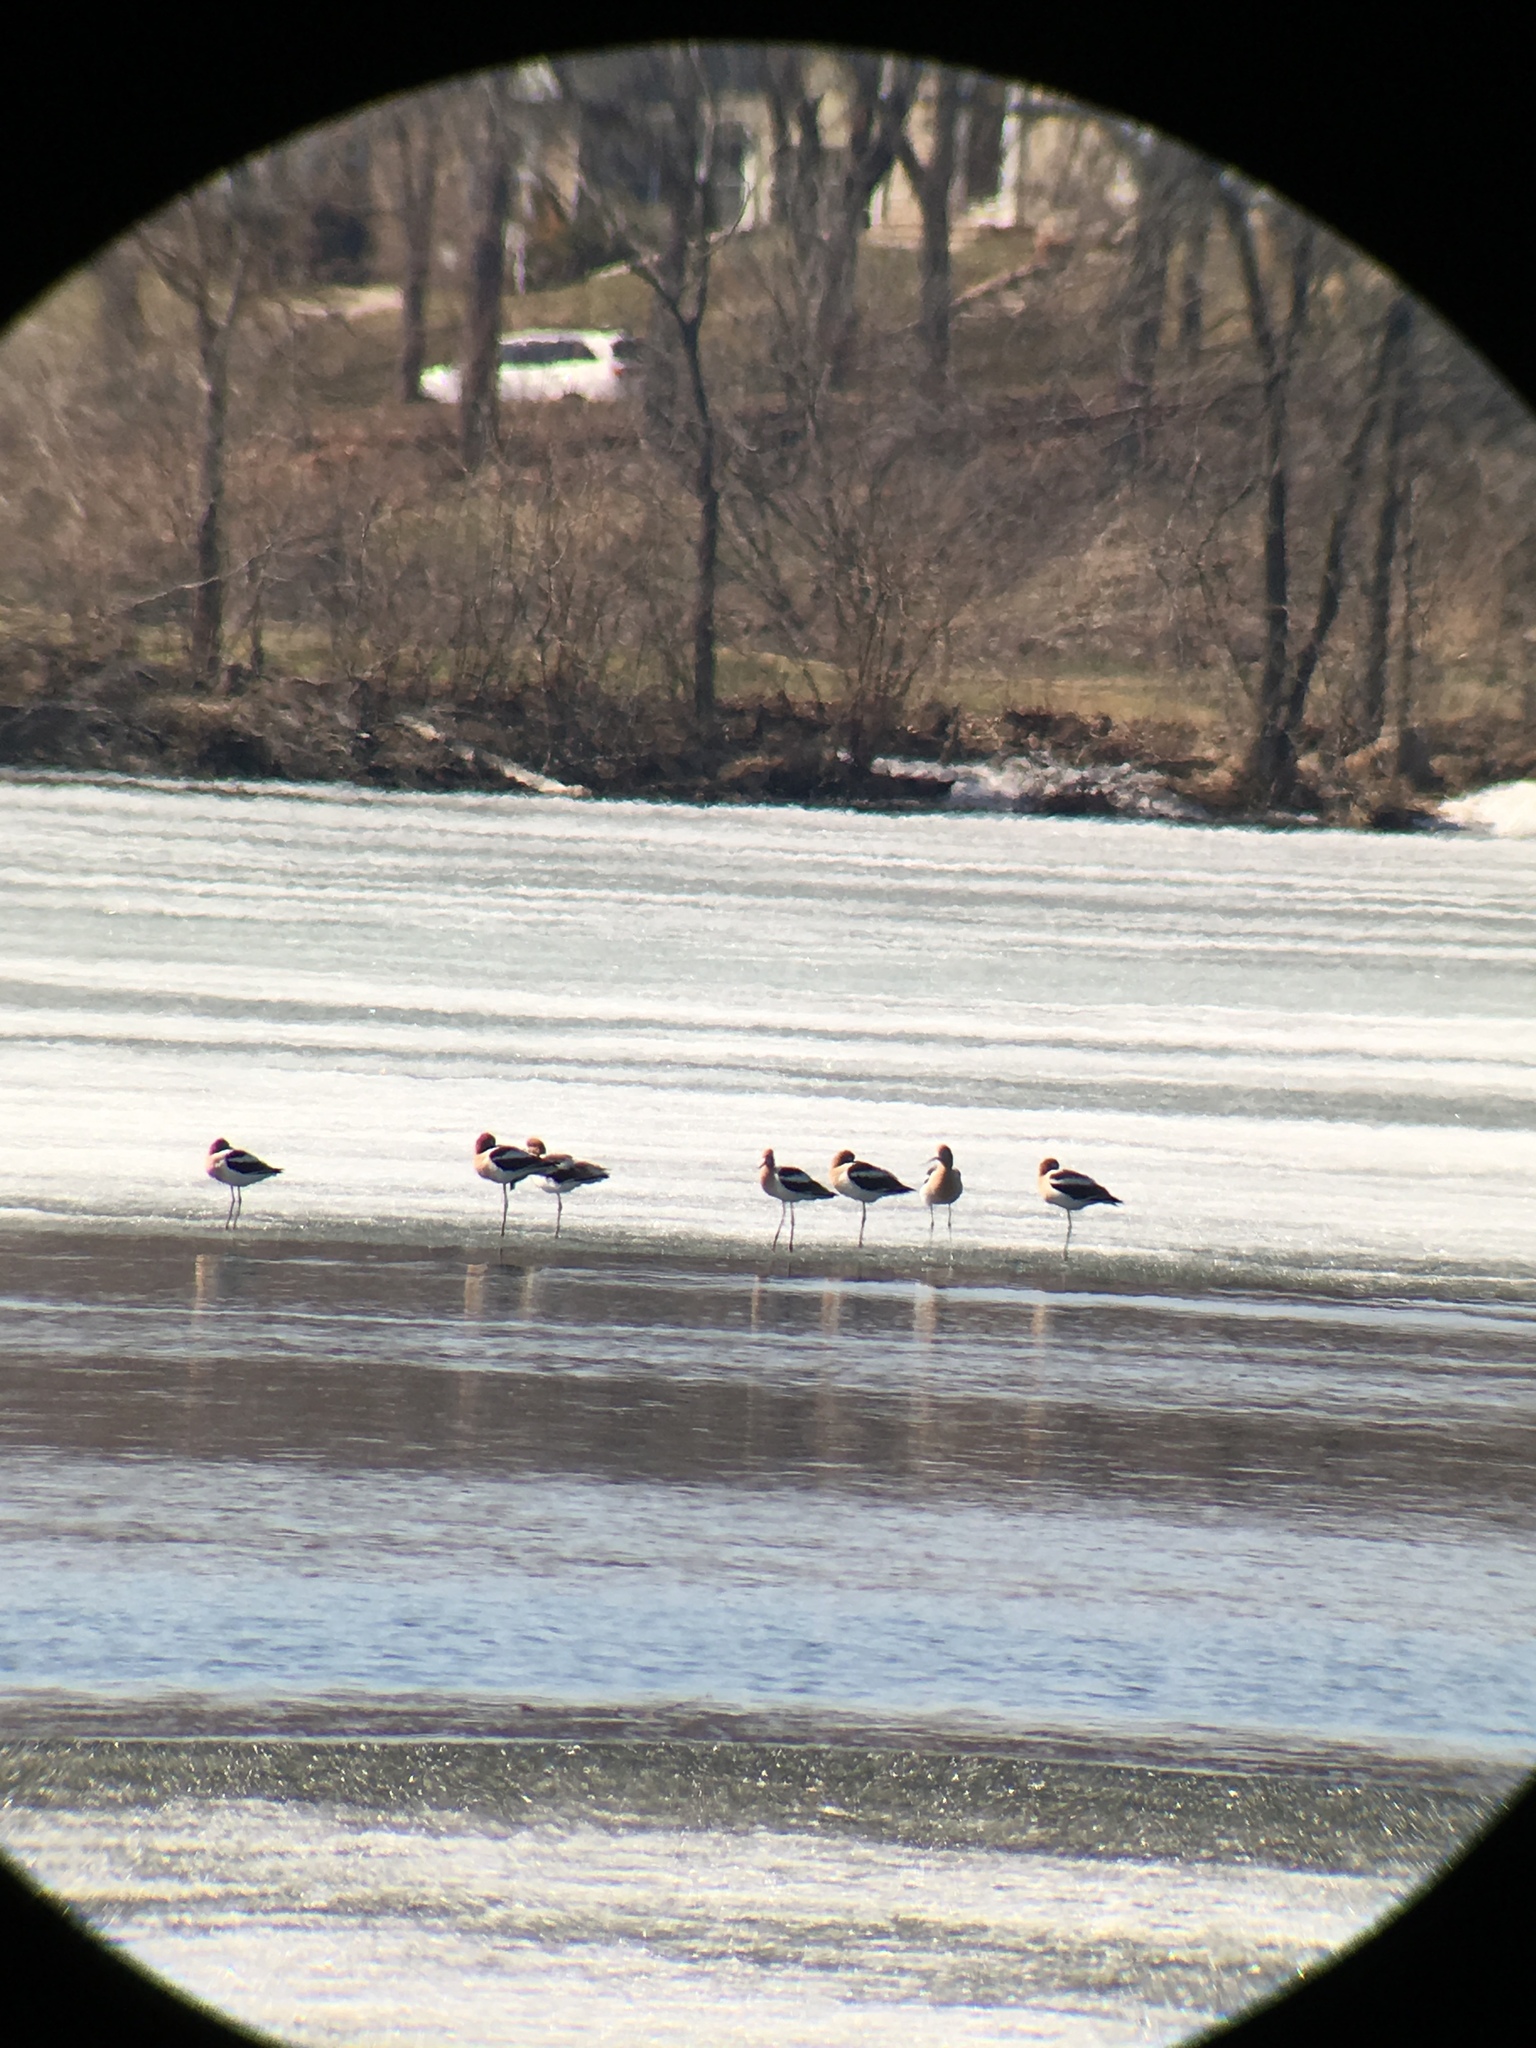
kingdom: Animalia
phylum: Chordata
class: Aves
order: Charadriiformes
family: Recurvirostridae
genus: Recurvirostra
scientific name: Recurvirostra americana
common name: American avocet
